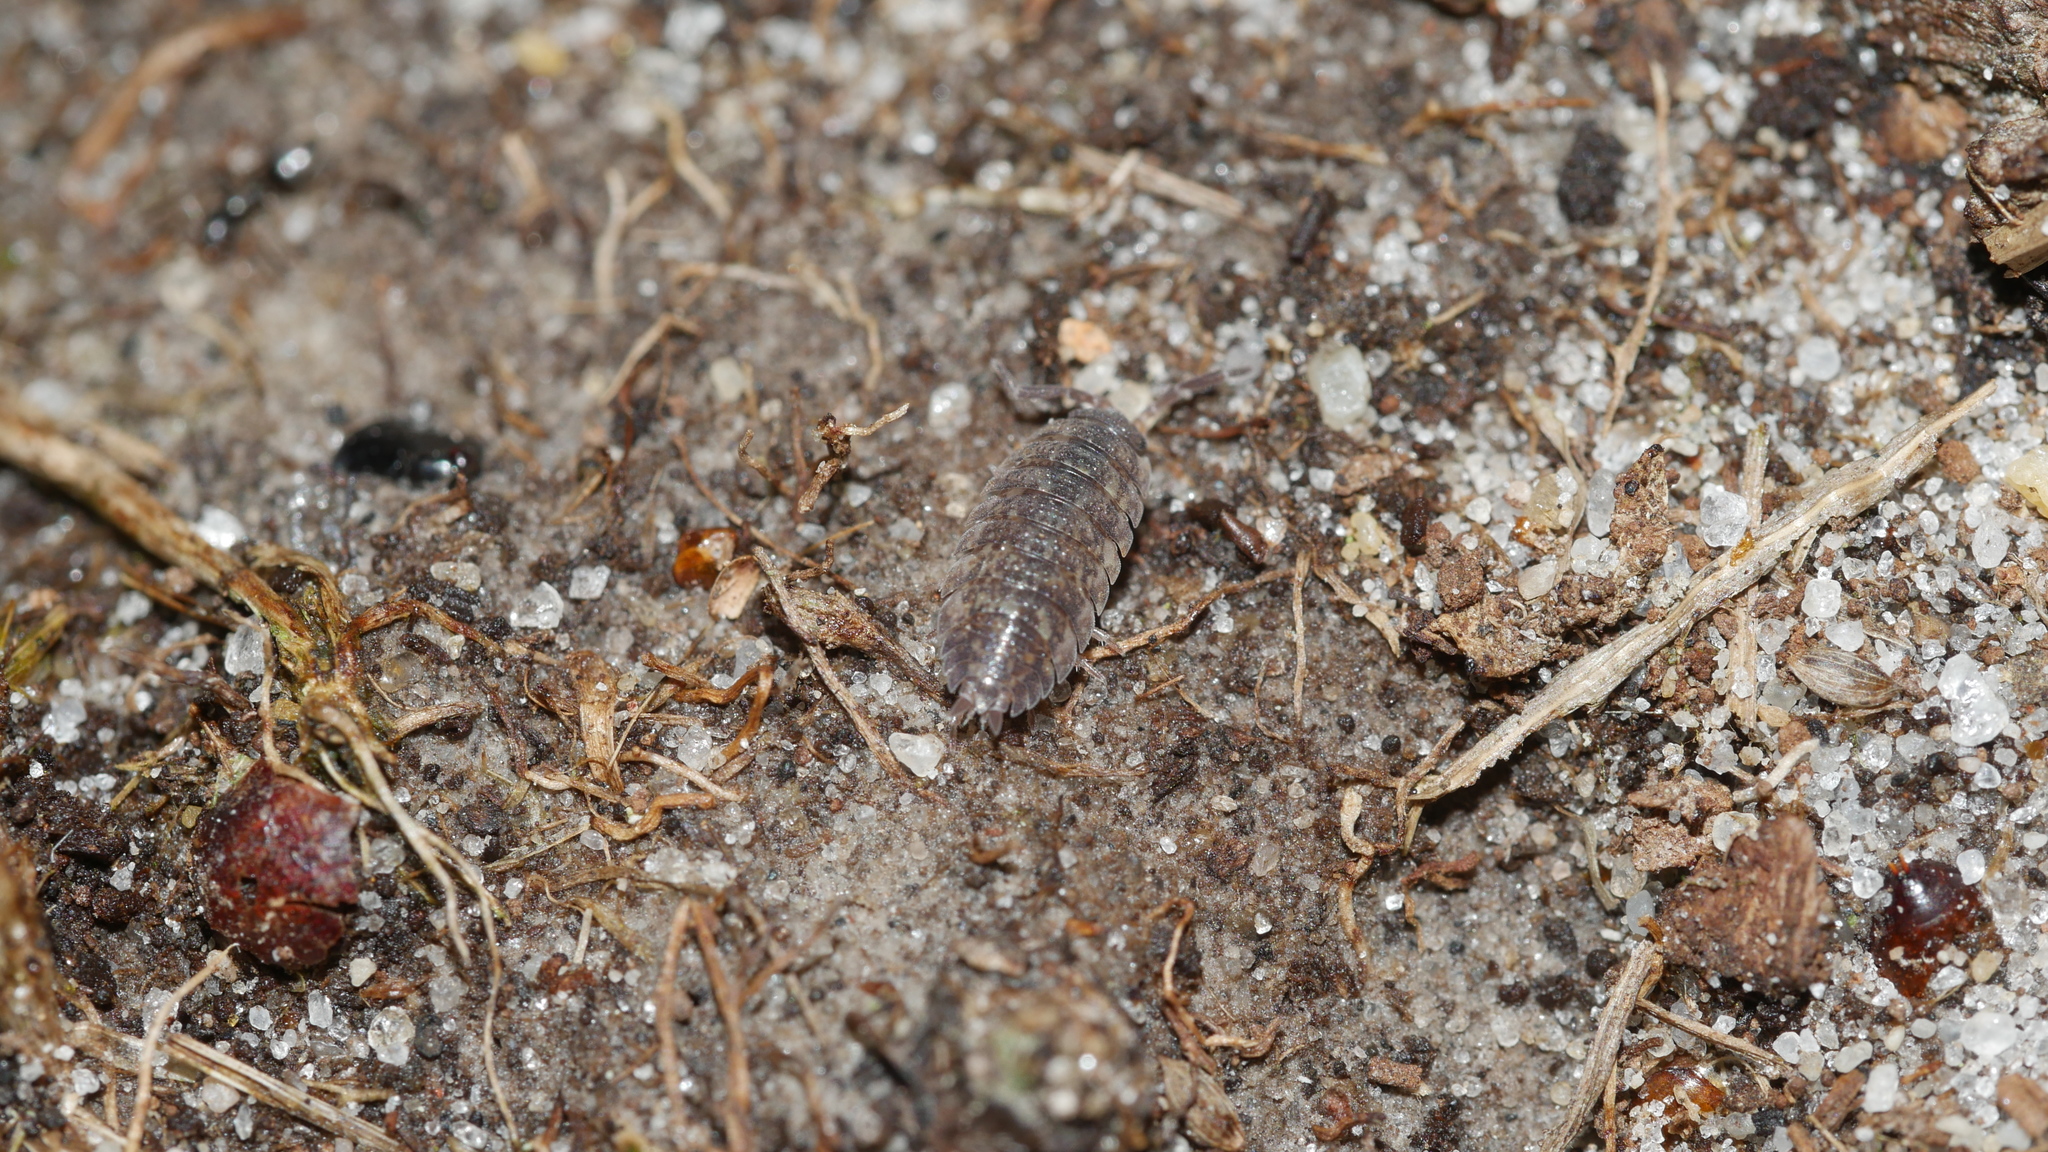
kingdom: Animalia
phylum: Arthropoda
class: Malacostraca
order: Isopoda
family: Porcellionidae
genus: Porcellio
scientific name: Porcellio scaber
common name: Common rough woodlouse
